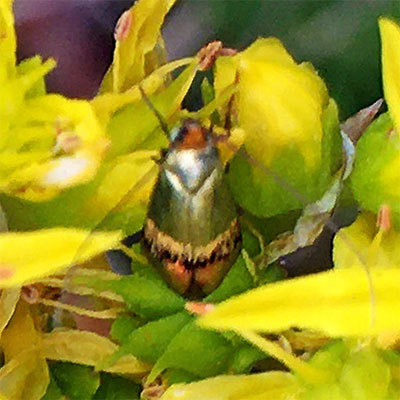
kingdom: Animalia
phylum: Arthropoda
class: Insecta
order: Lepidoptera
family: Adelidae
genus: Nemophora
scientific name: Nemophora dumerilella
